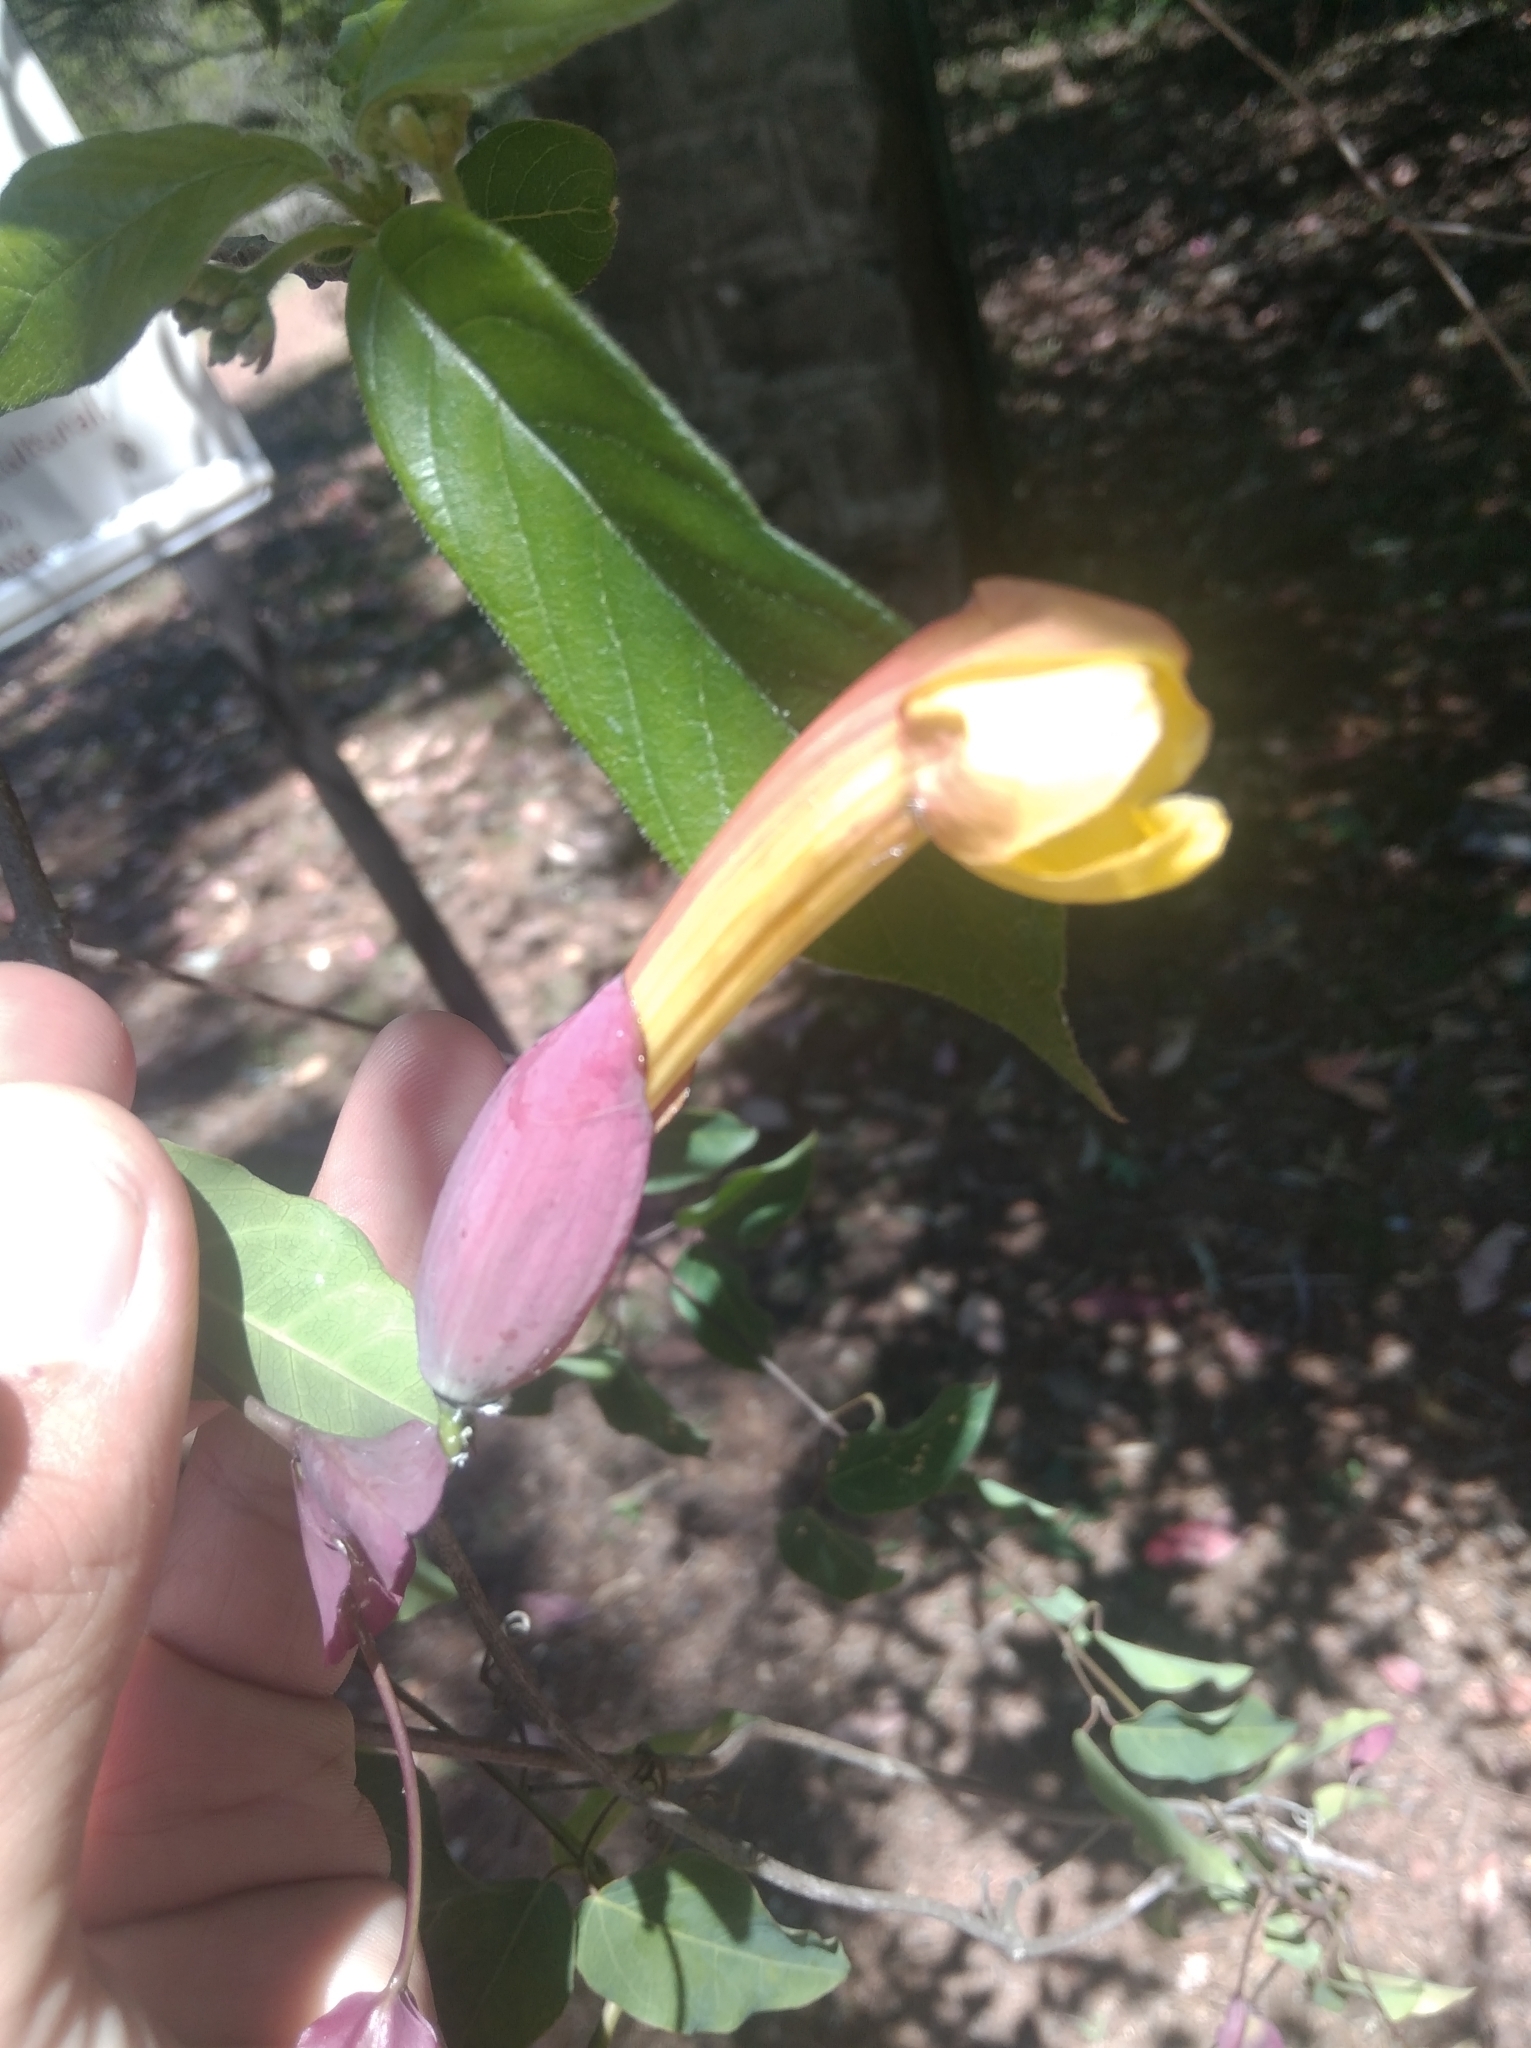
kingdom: Plantae
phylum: Tracheophyta
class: Magnoliopsida
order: Lamiales
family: Bignoniaceae
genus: Dolichandra
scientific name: Dolichandra cynanchoides
